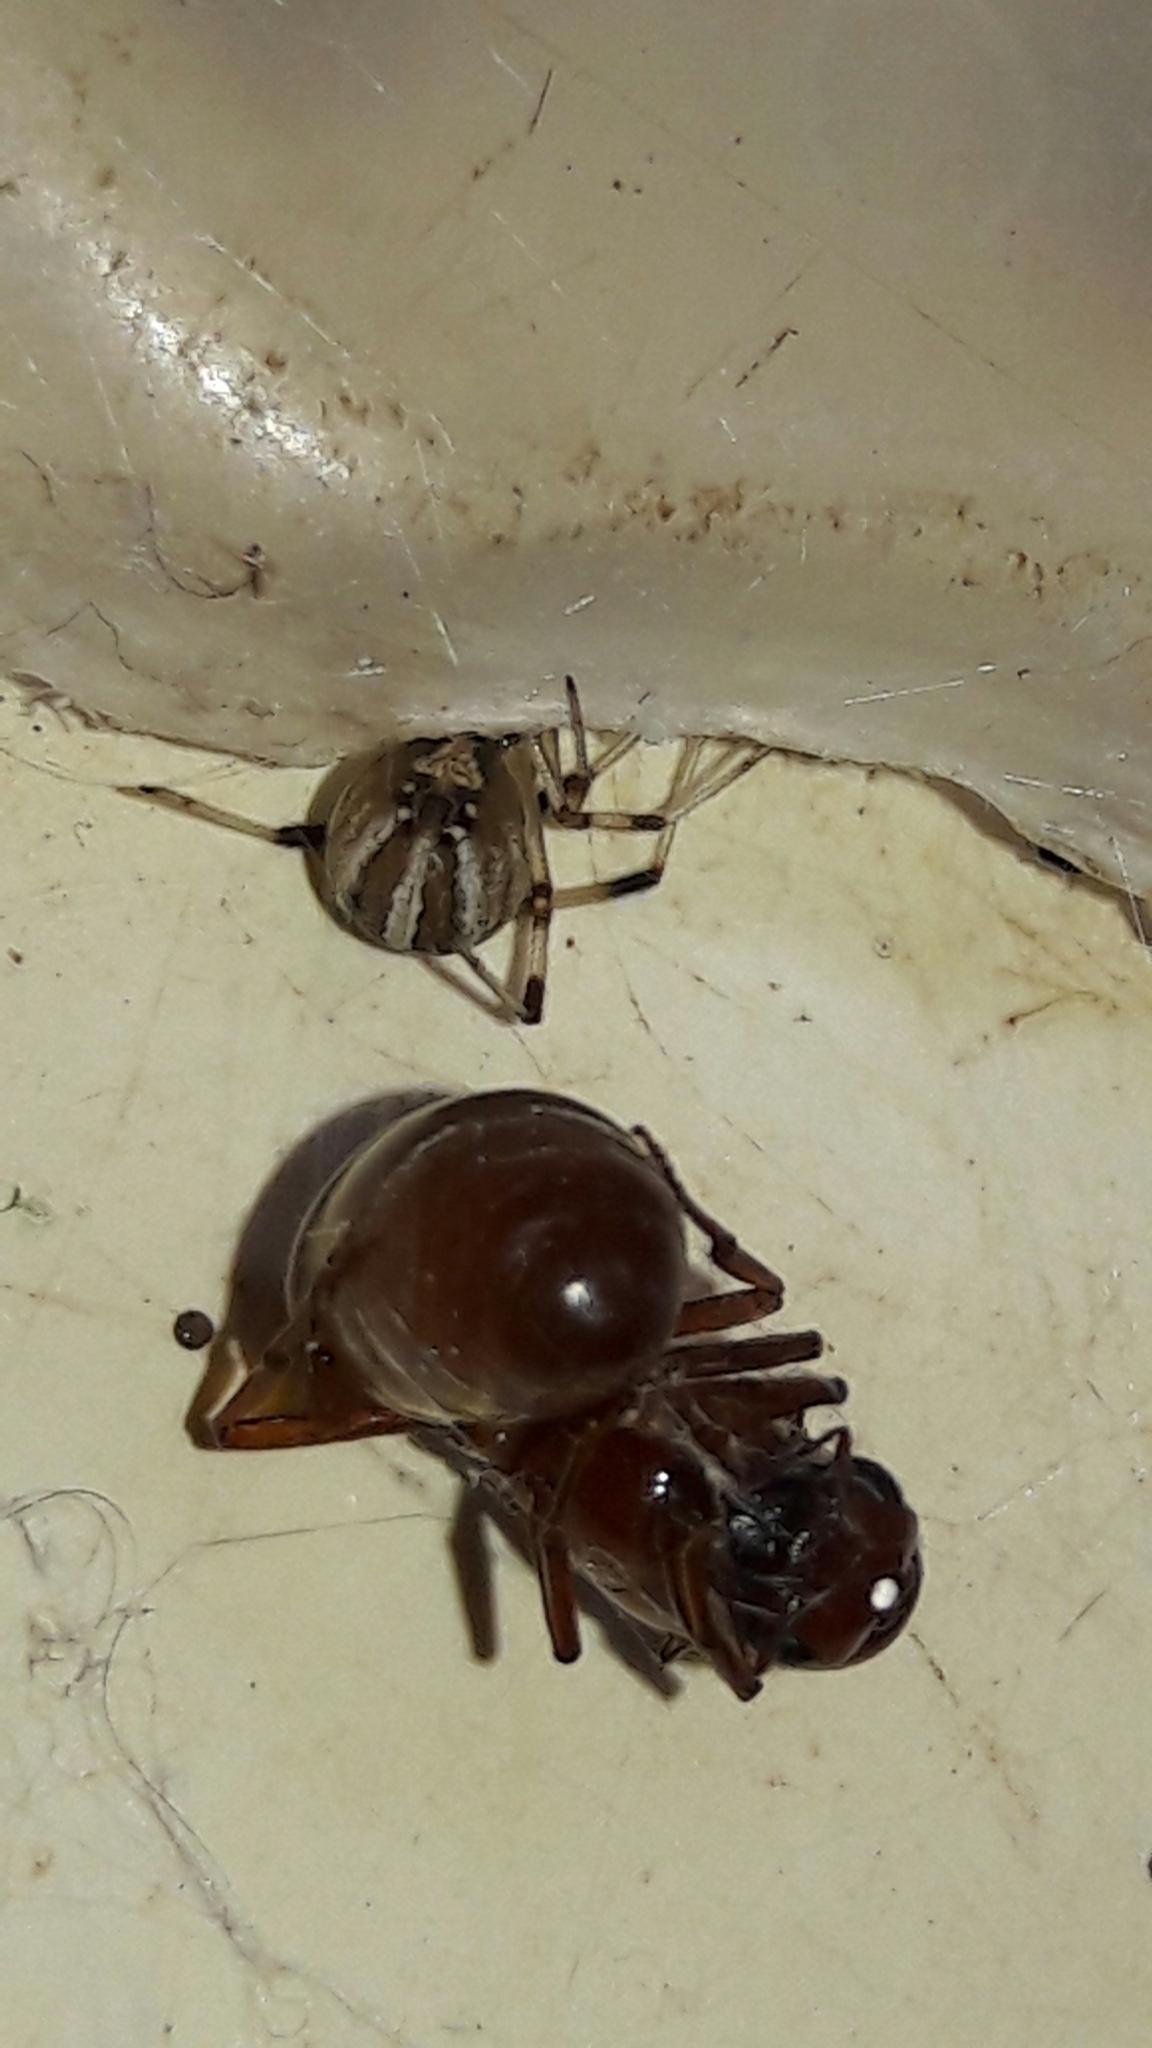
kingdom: Animalia
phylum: Arthropoda
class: Arachnida
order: Araneae
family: Theridiidae
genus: Latrodectus
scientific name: Latrodectus geometricus
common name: Brown widow spider
